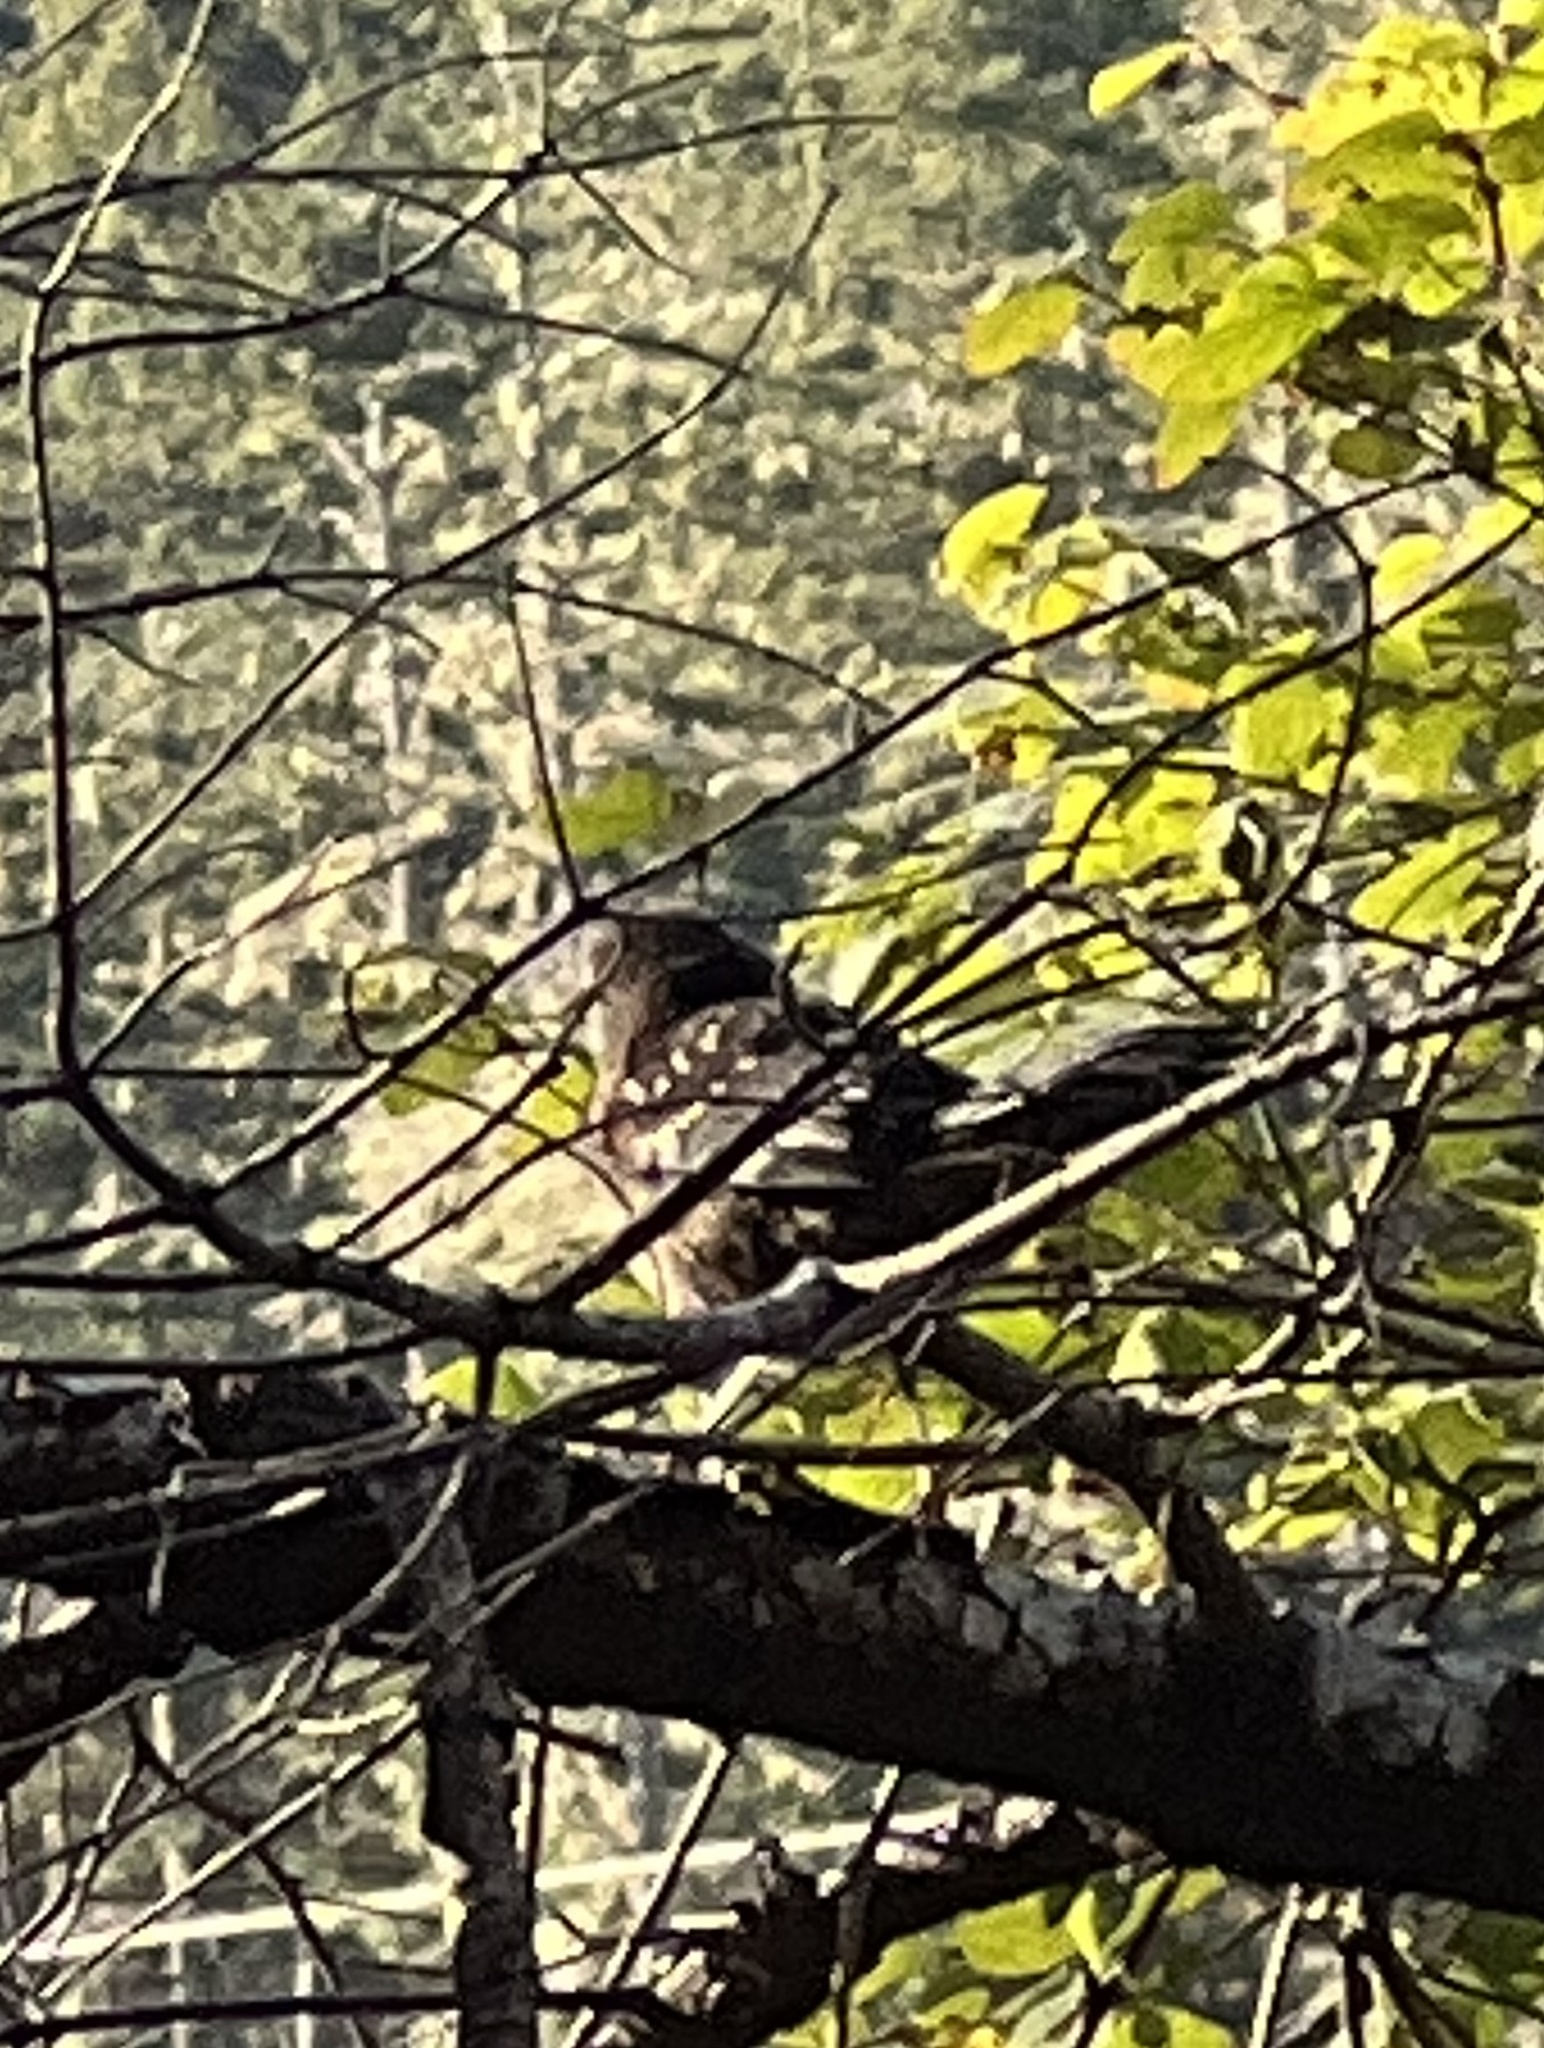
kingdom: Animalia
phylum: Chordata
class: Aves
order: Passeriformes
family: Passerellidae
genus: Pipilo
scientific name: Pipilo maculatus
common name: Spotted towhee
